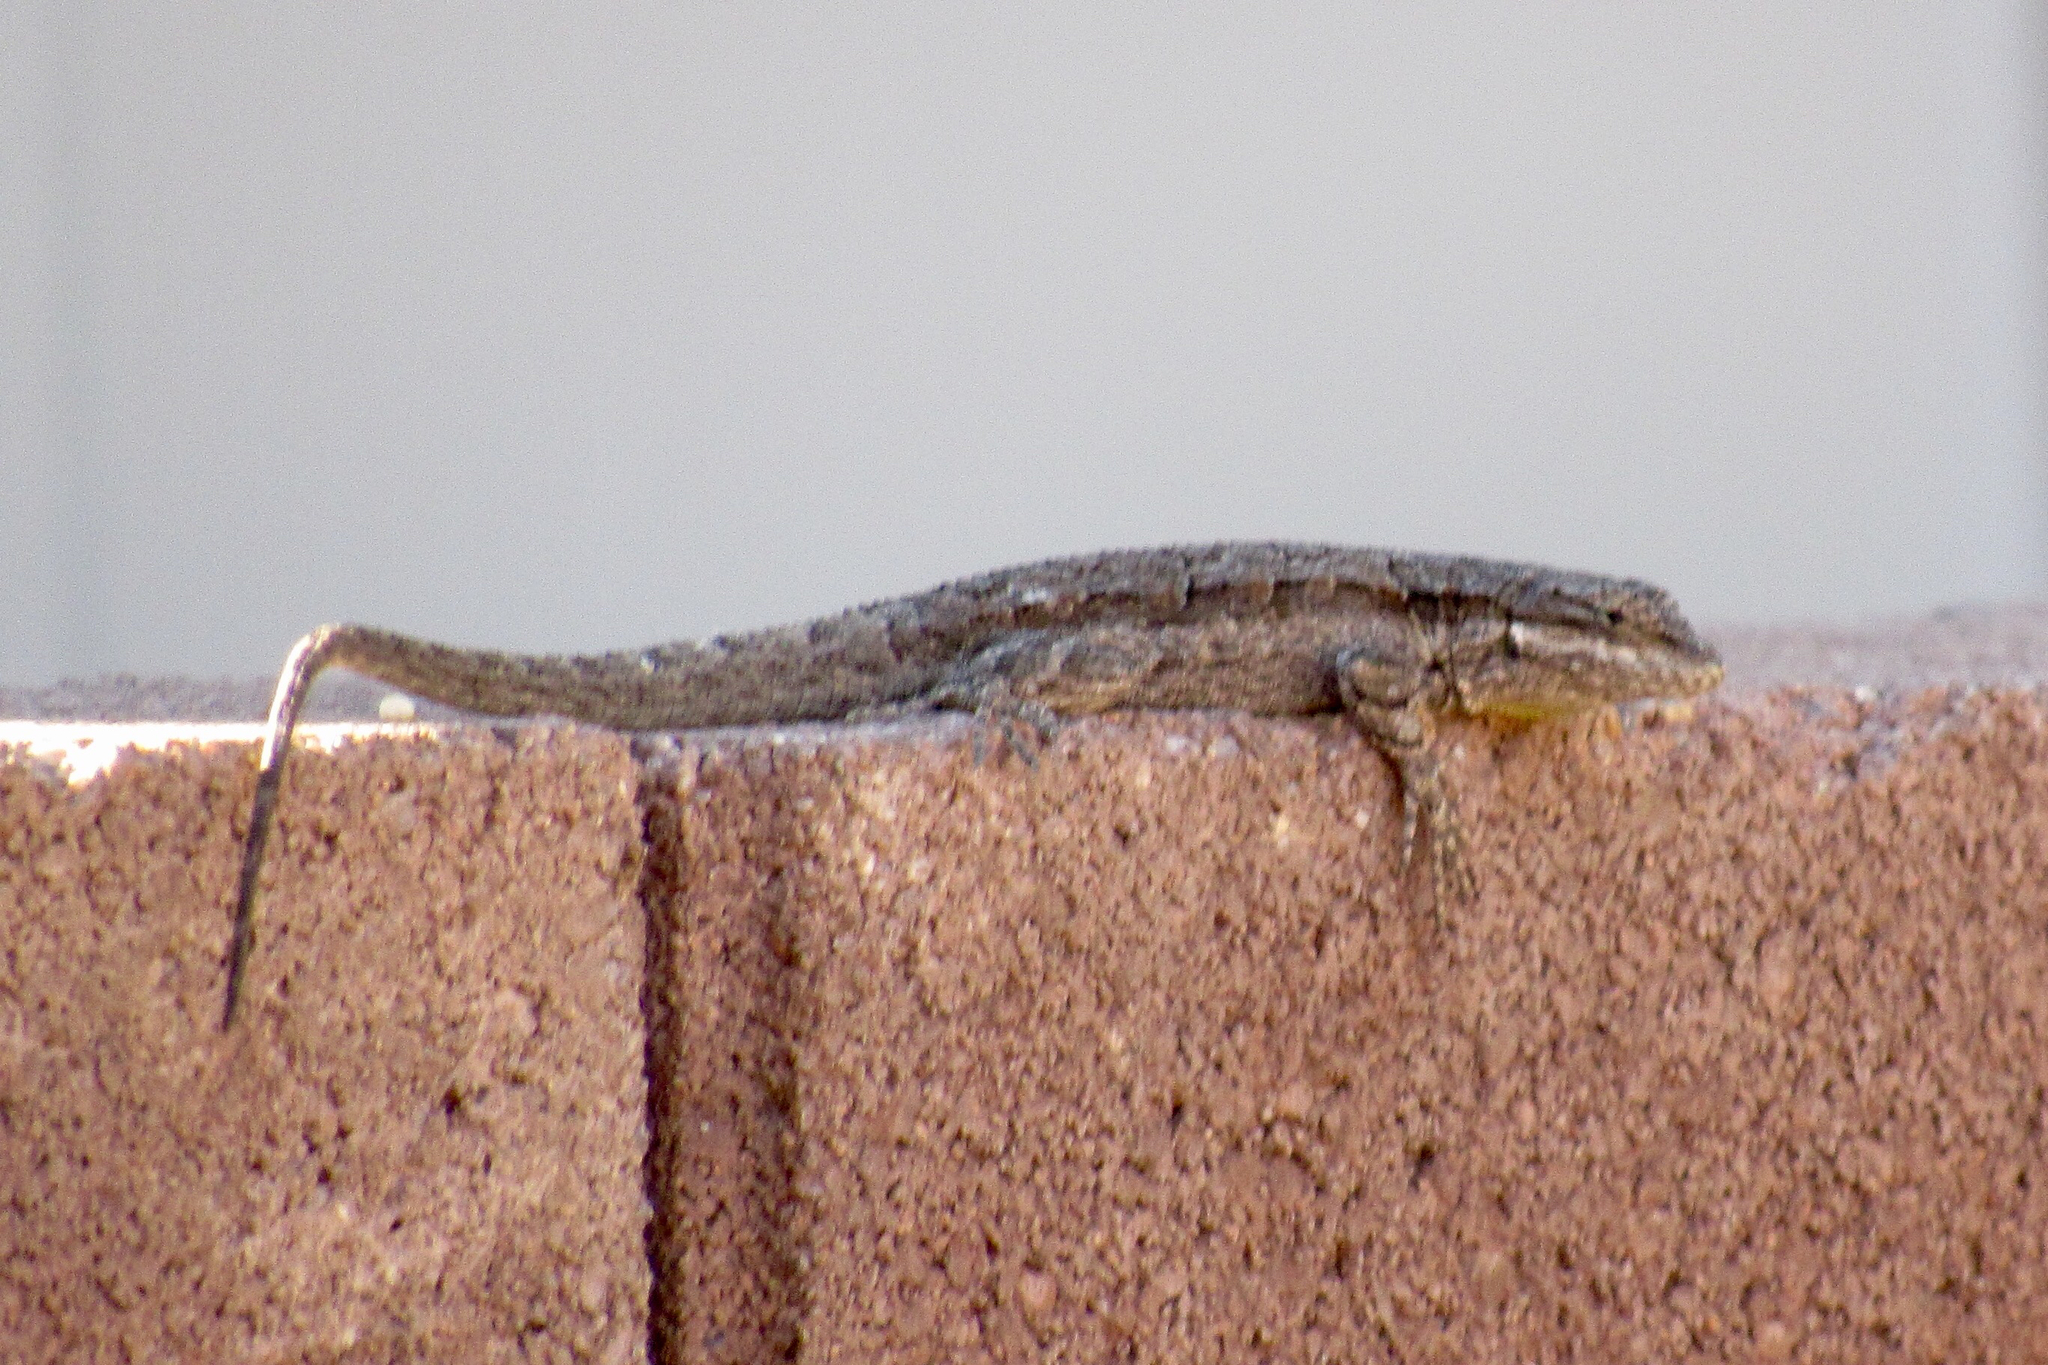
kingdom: Animalia
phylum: Chordata
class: Squamata
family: Phrynosomatidae
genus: Urosaurus
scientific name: Urosaurus ornatus
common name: Ornate tree lizard
